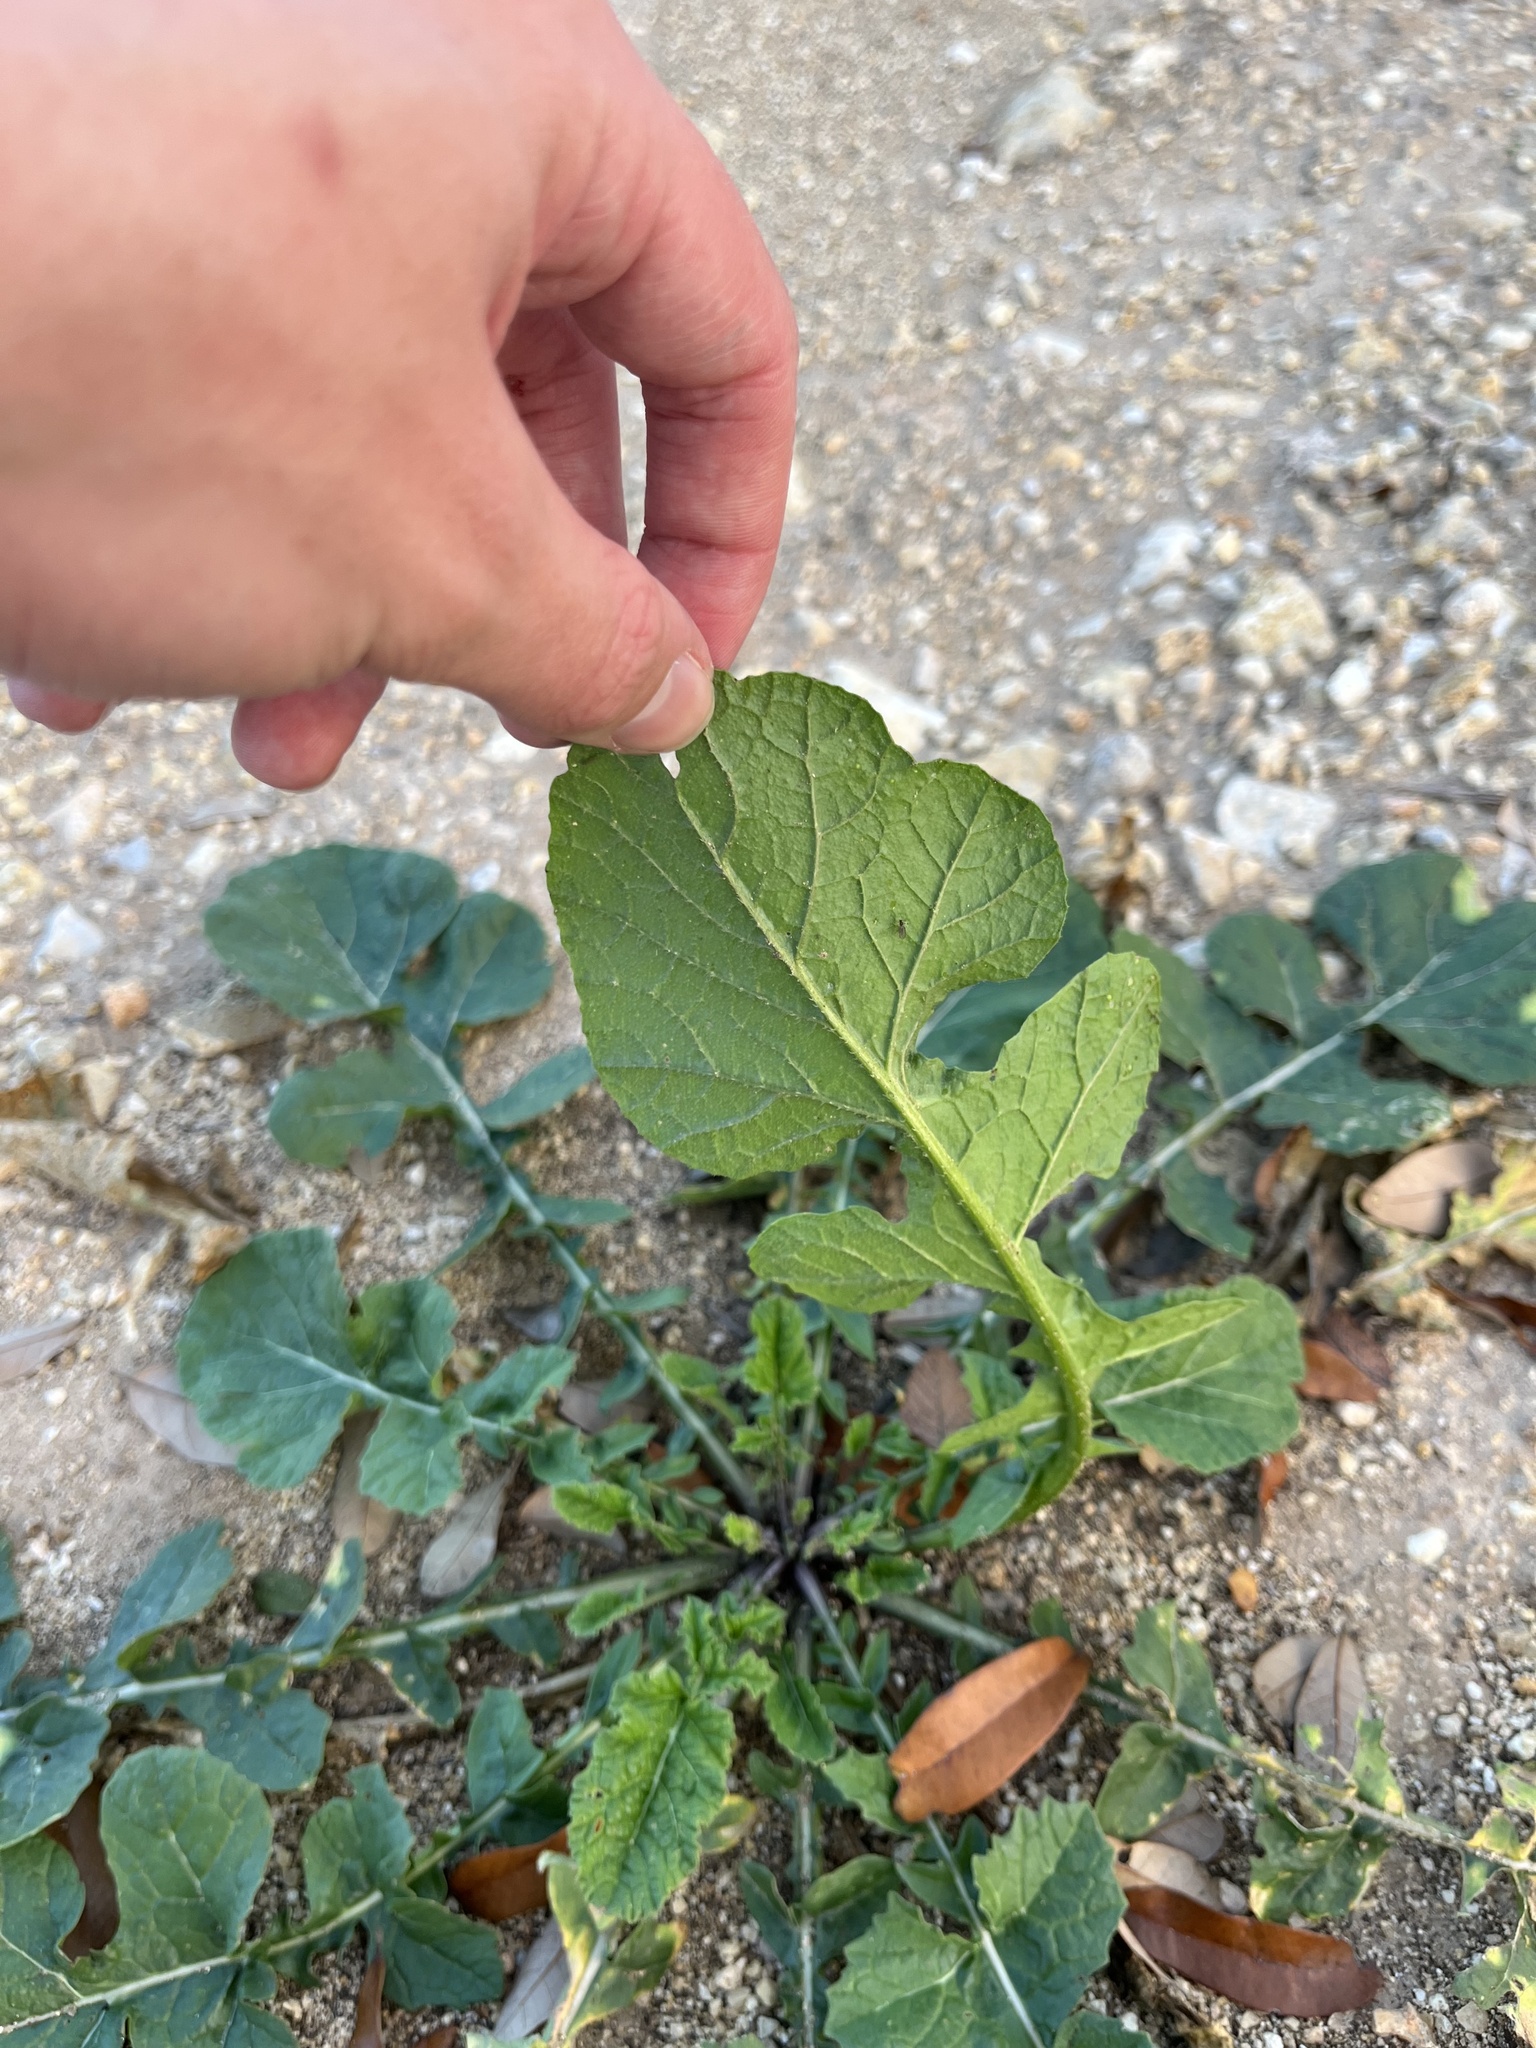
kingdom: Plantae
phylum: Tracheophyta
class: Magnoliopsida
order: Brassicales
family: Brassicaceae
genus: Rapistrum
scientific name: Rapistrum rugosum
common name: Annual bastardcabbage
